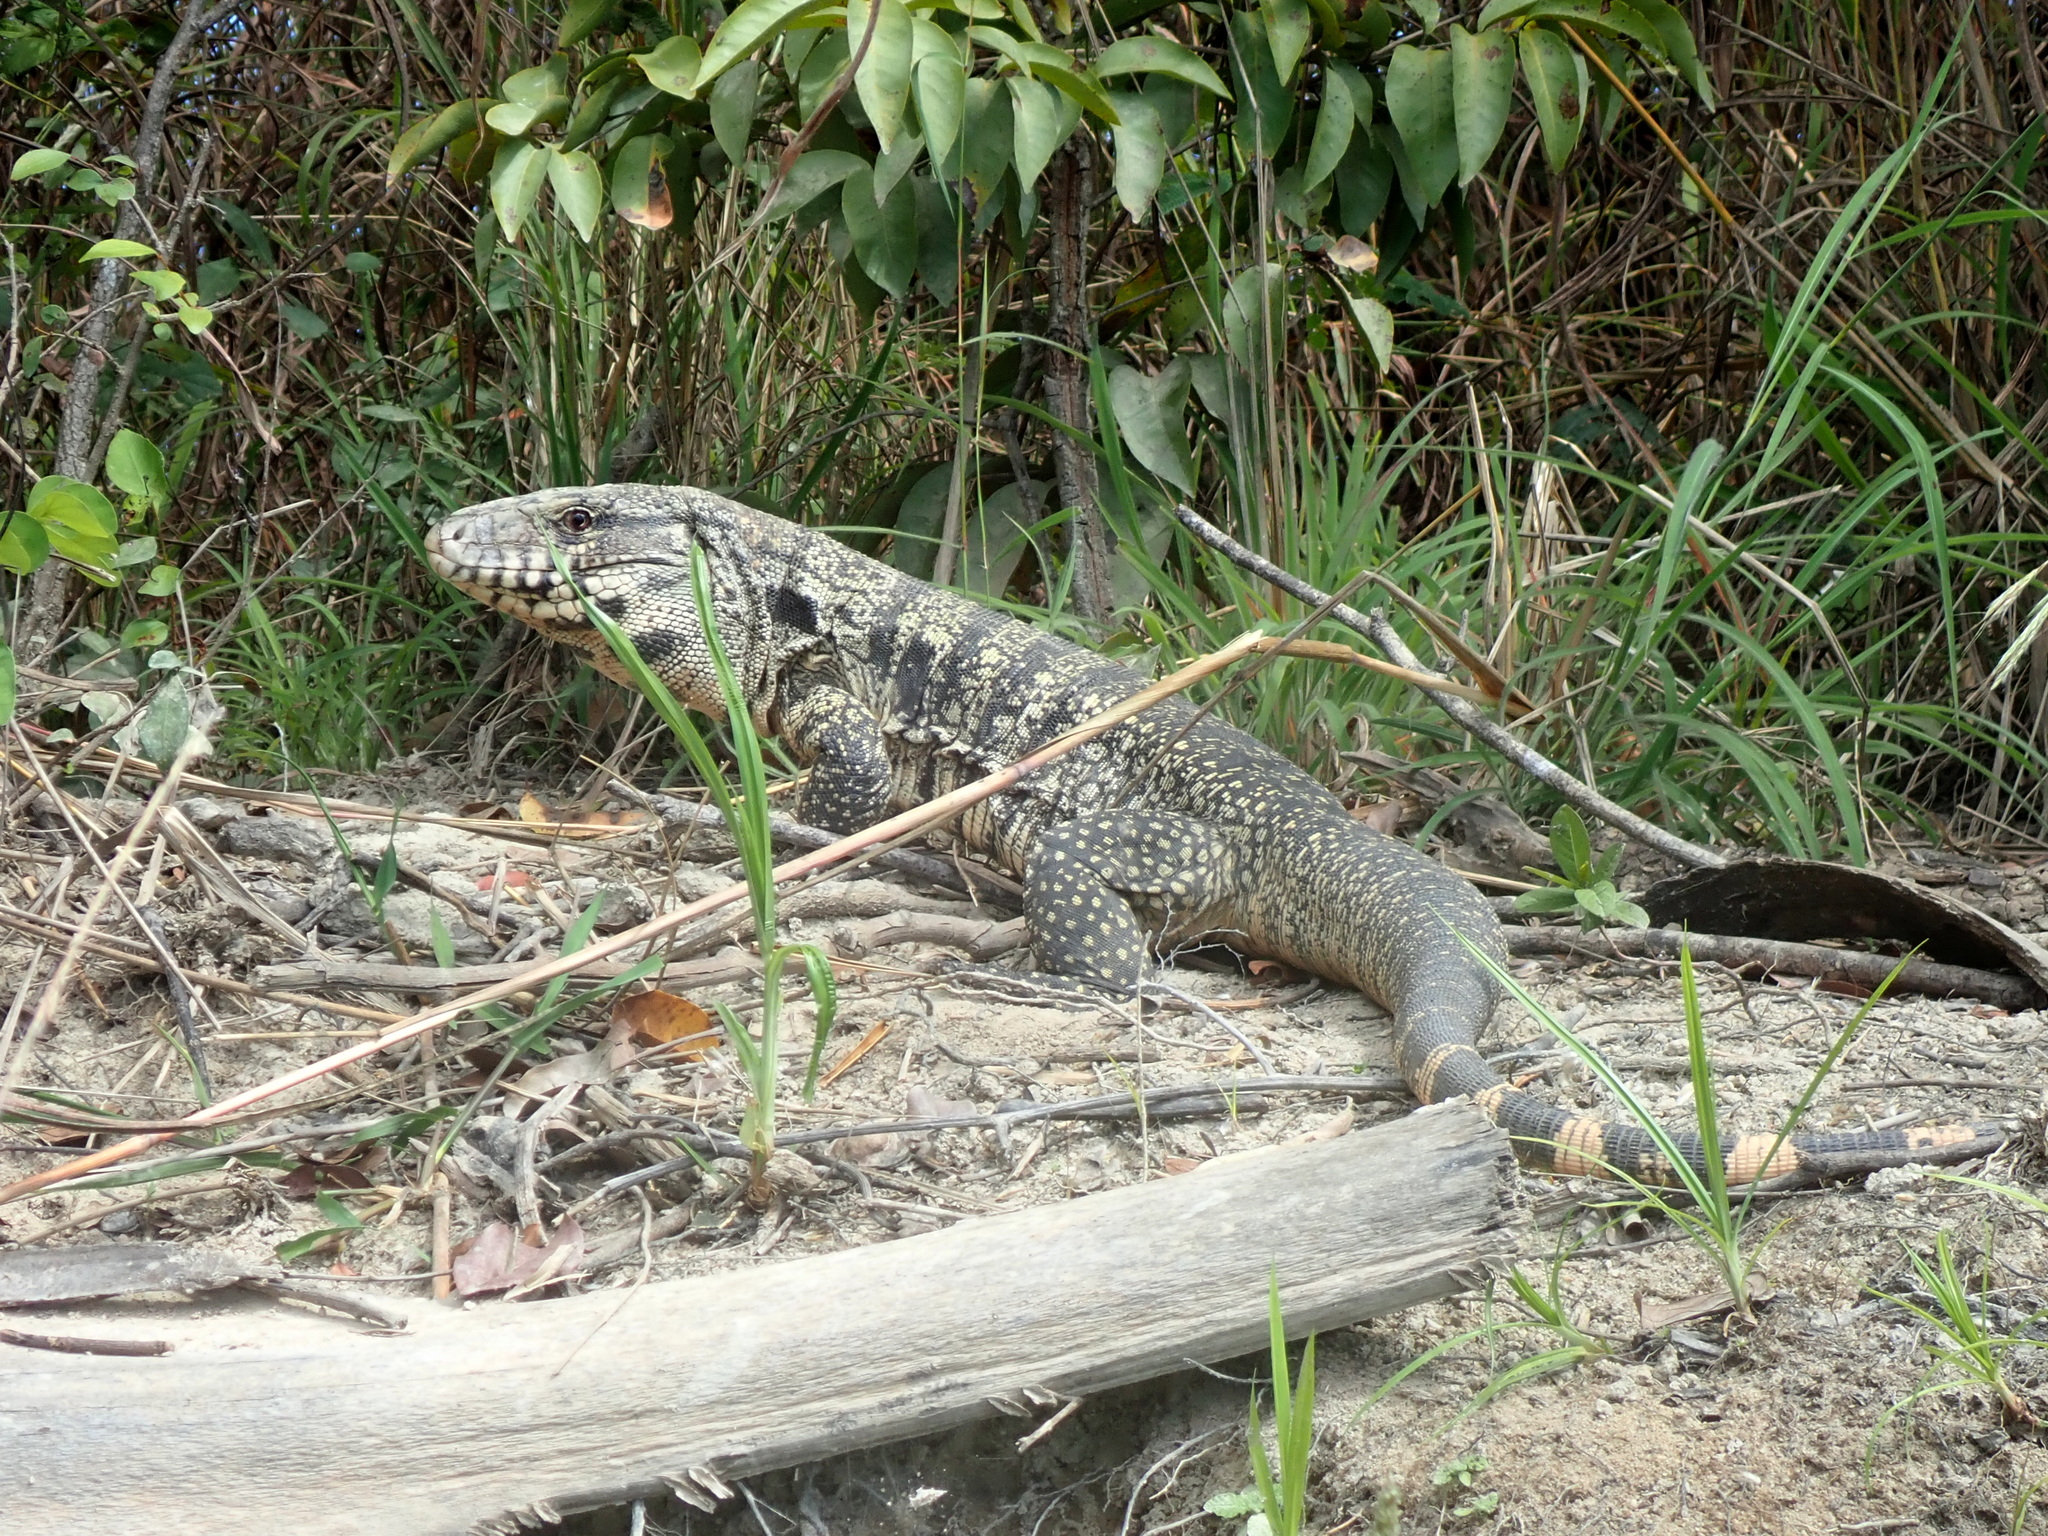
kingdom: Animalia
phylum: Chordata
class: Squamata
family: Teiidae
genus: Salvator
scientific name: Salvator merianae
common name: Argentine black and white tegu
